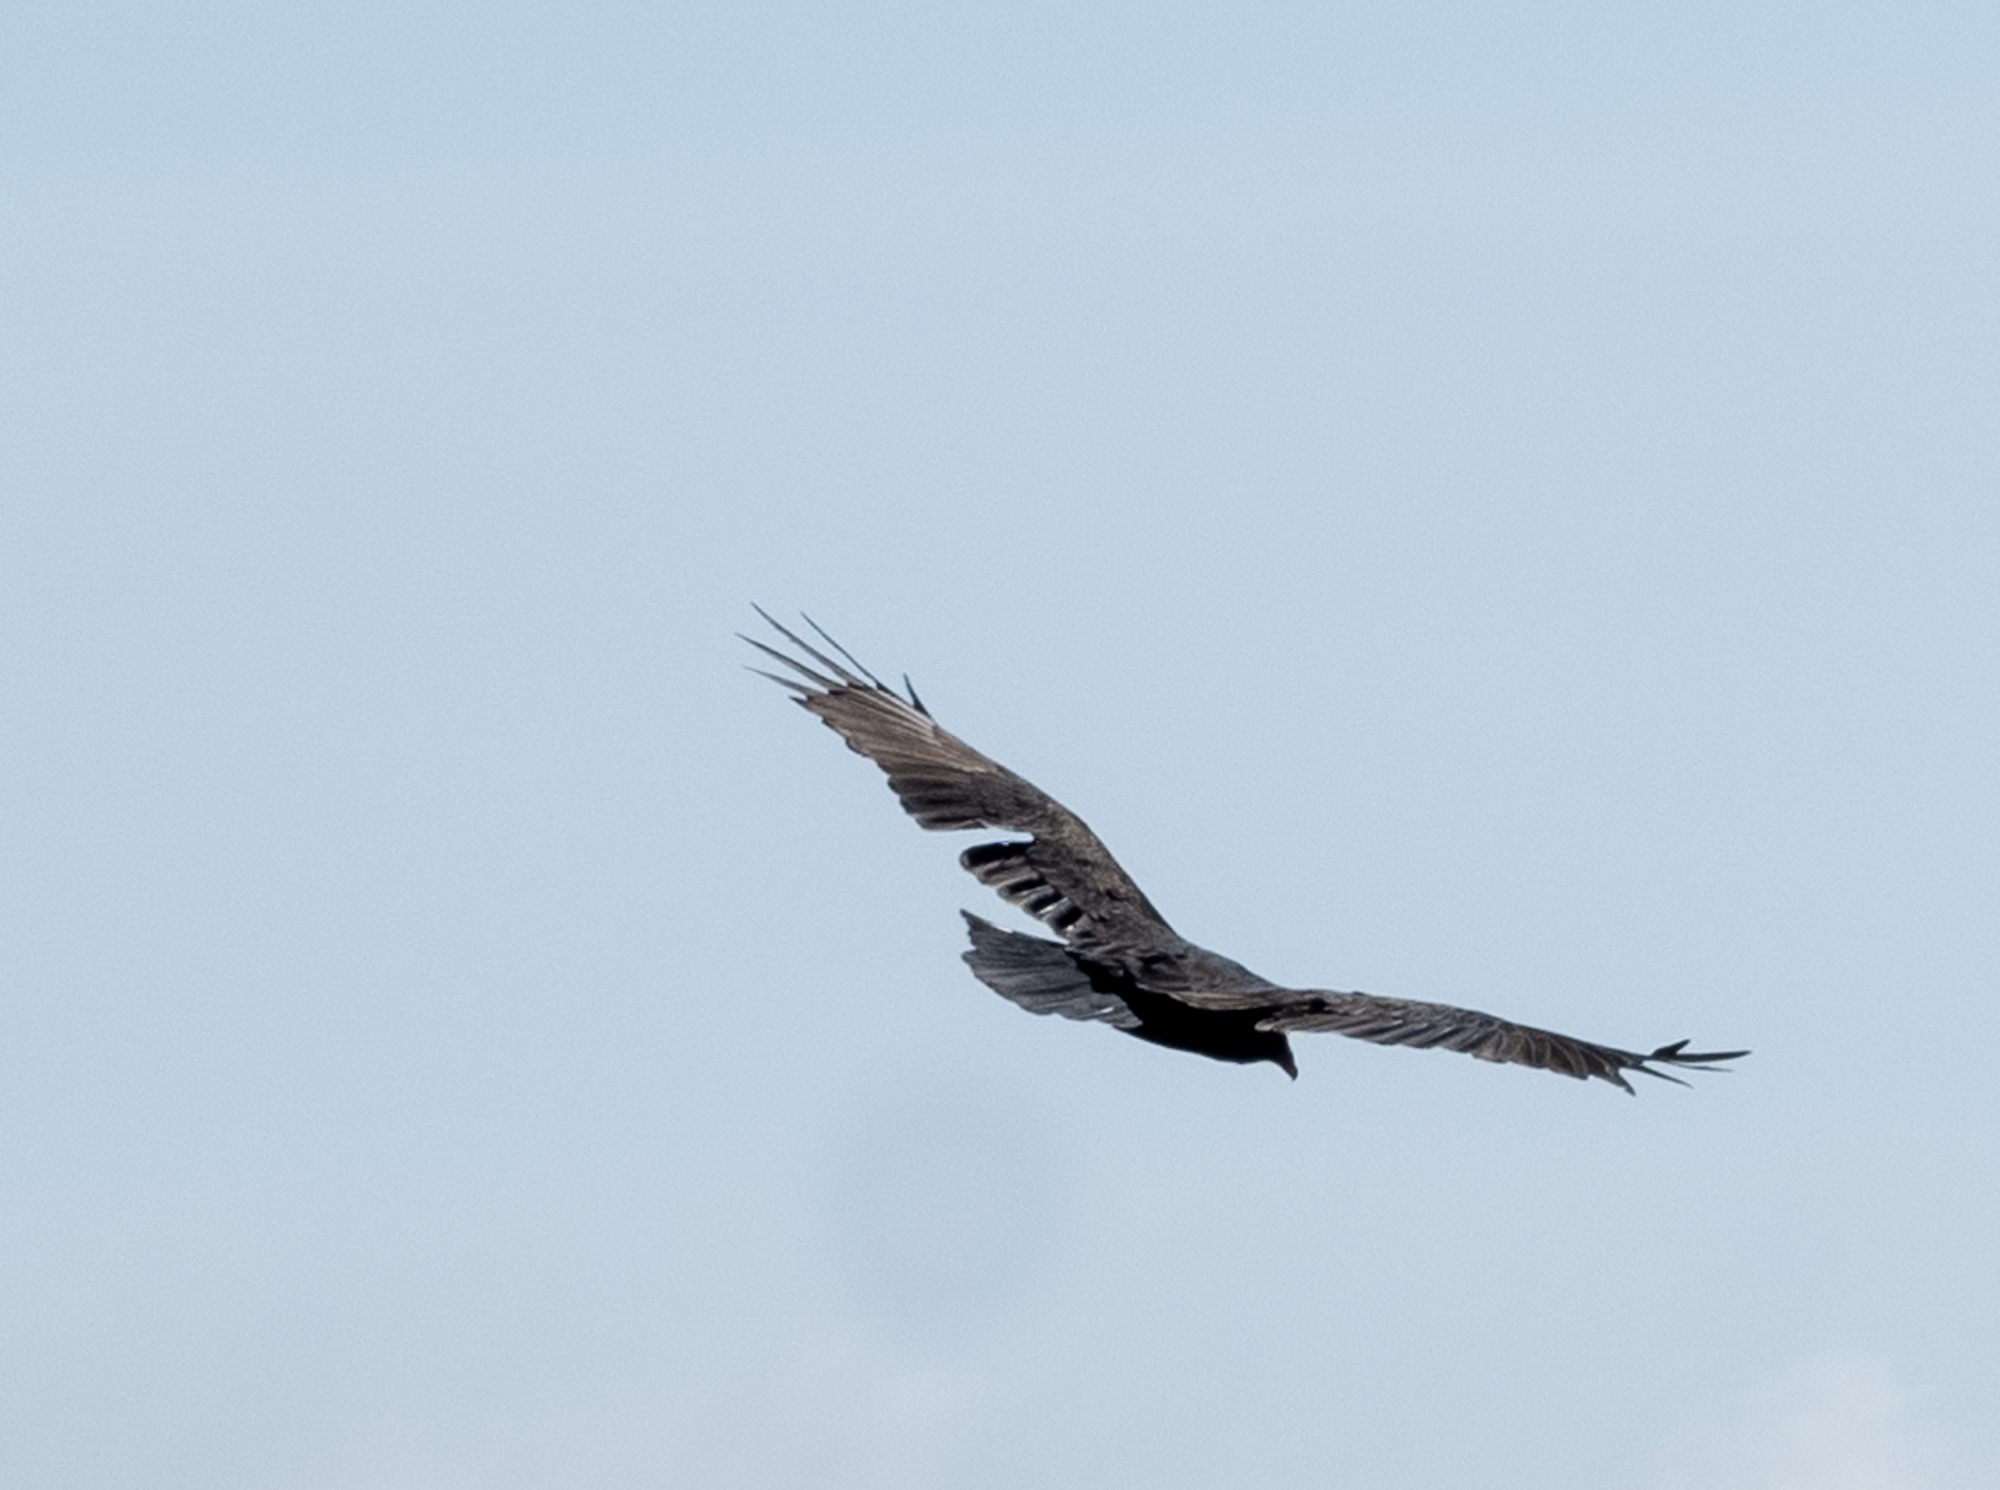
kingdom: Animalia
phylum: Chordata
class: Aves
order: Accipitriformes
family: Cathartidae
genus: Cathartes
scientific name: Cathartes aura
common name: Turkey vulture
